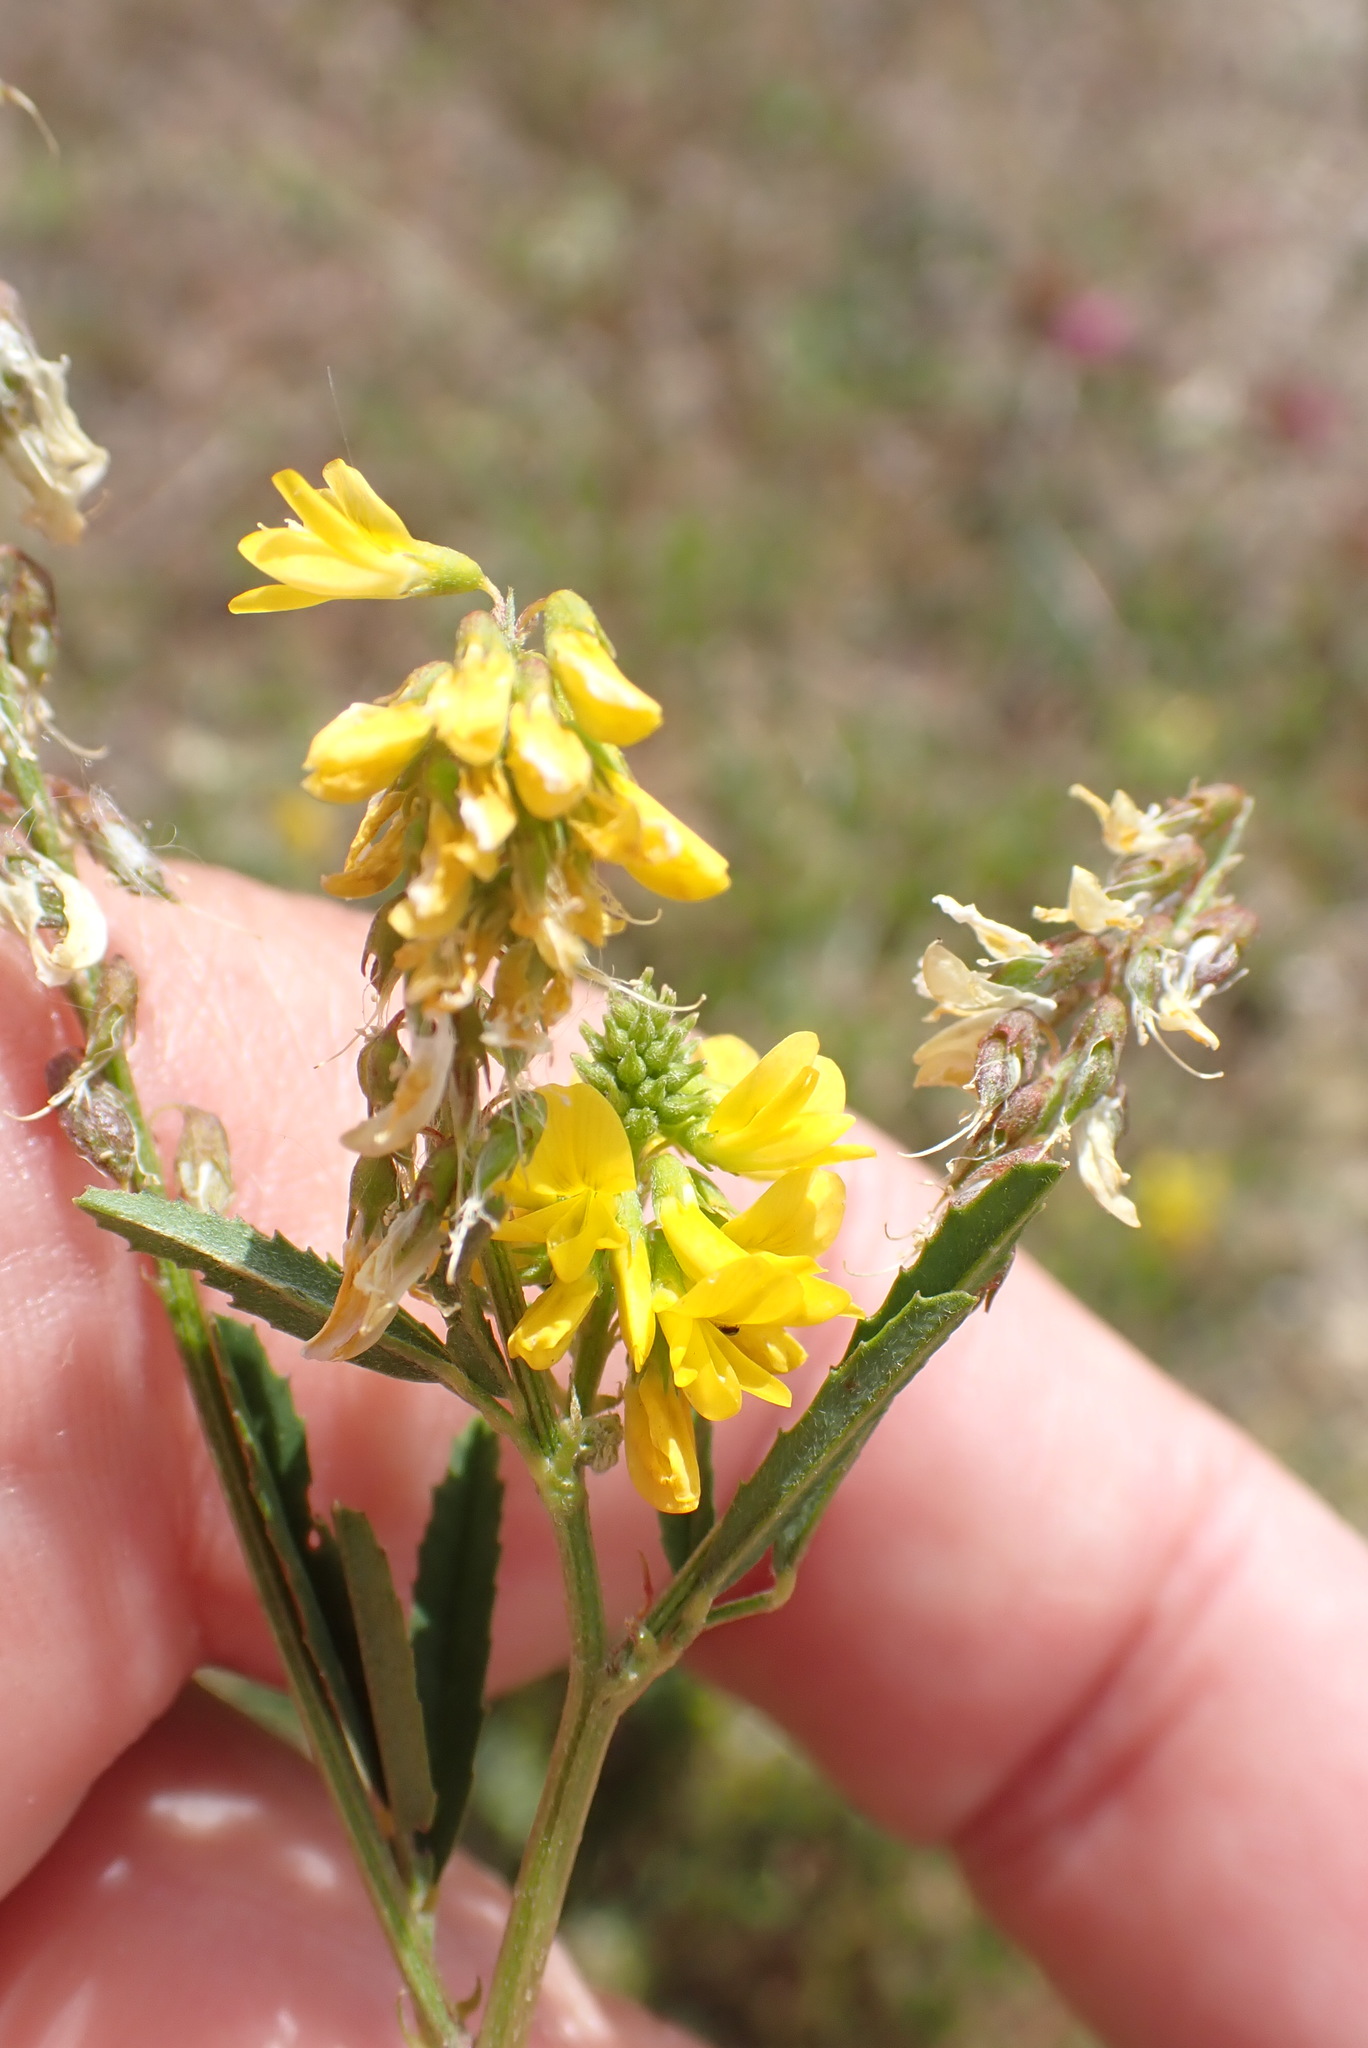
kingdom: Plantae
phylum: Tracheophyta
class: Magnoliopsida
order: Fabales
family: Fabaceae
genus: Melilotus
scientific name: Melilotus altissimus
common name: Tall melilot
